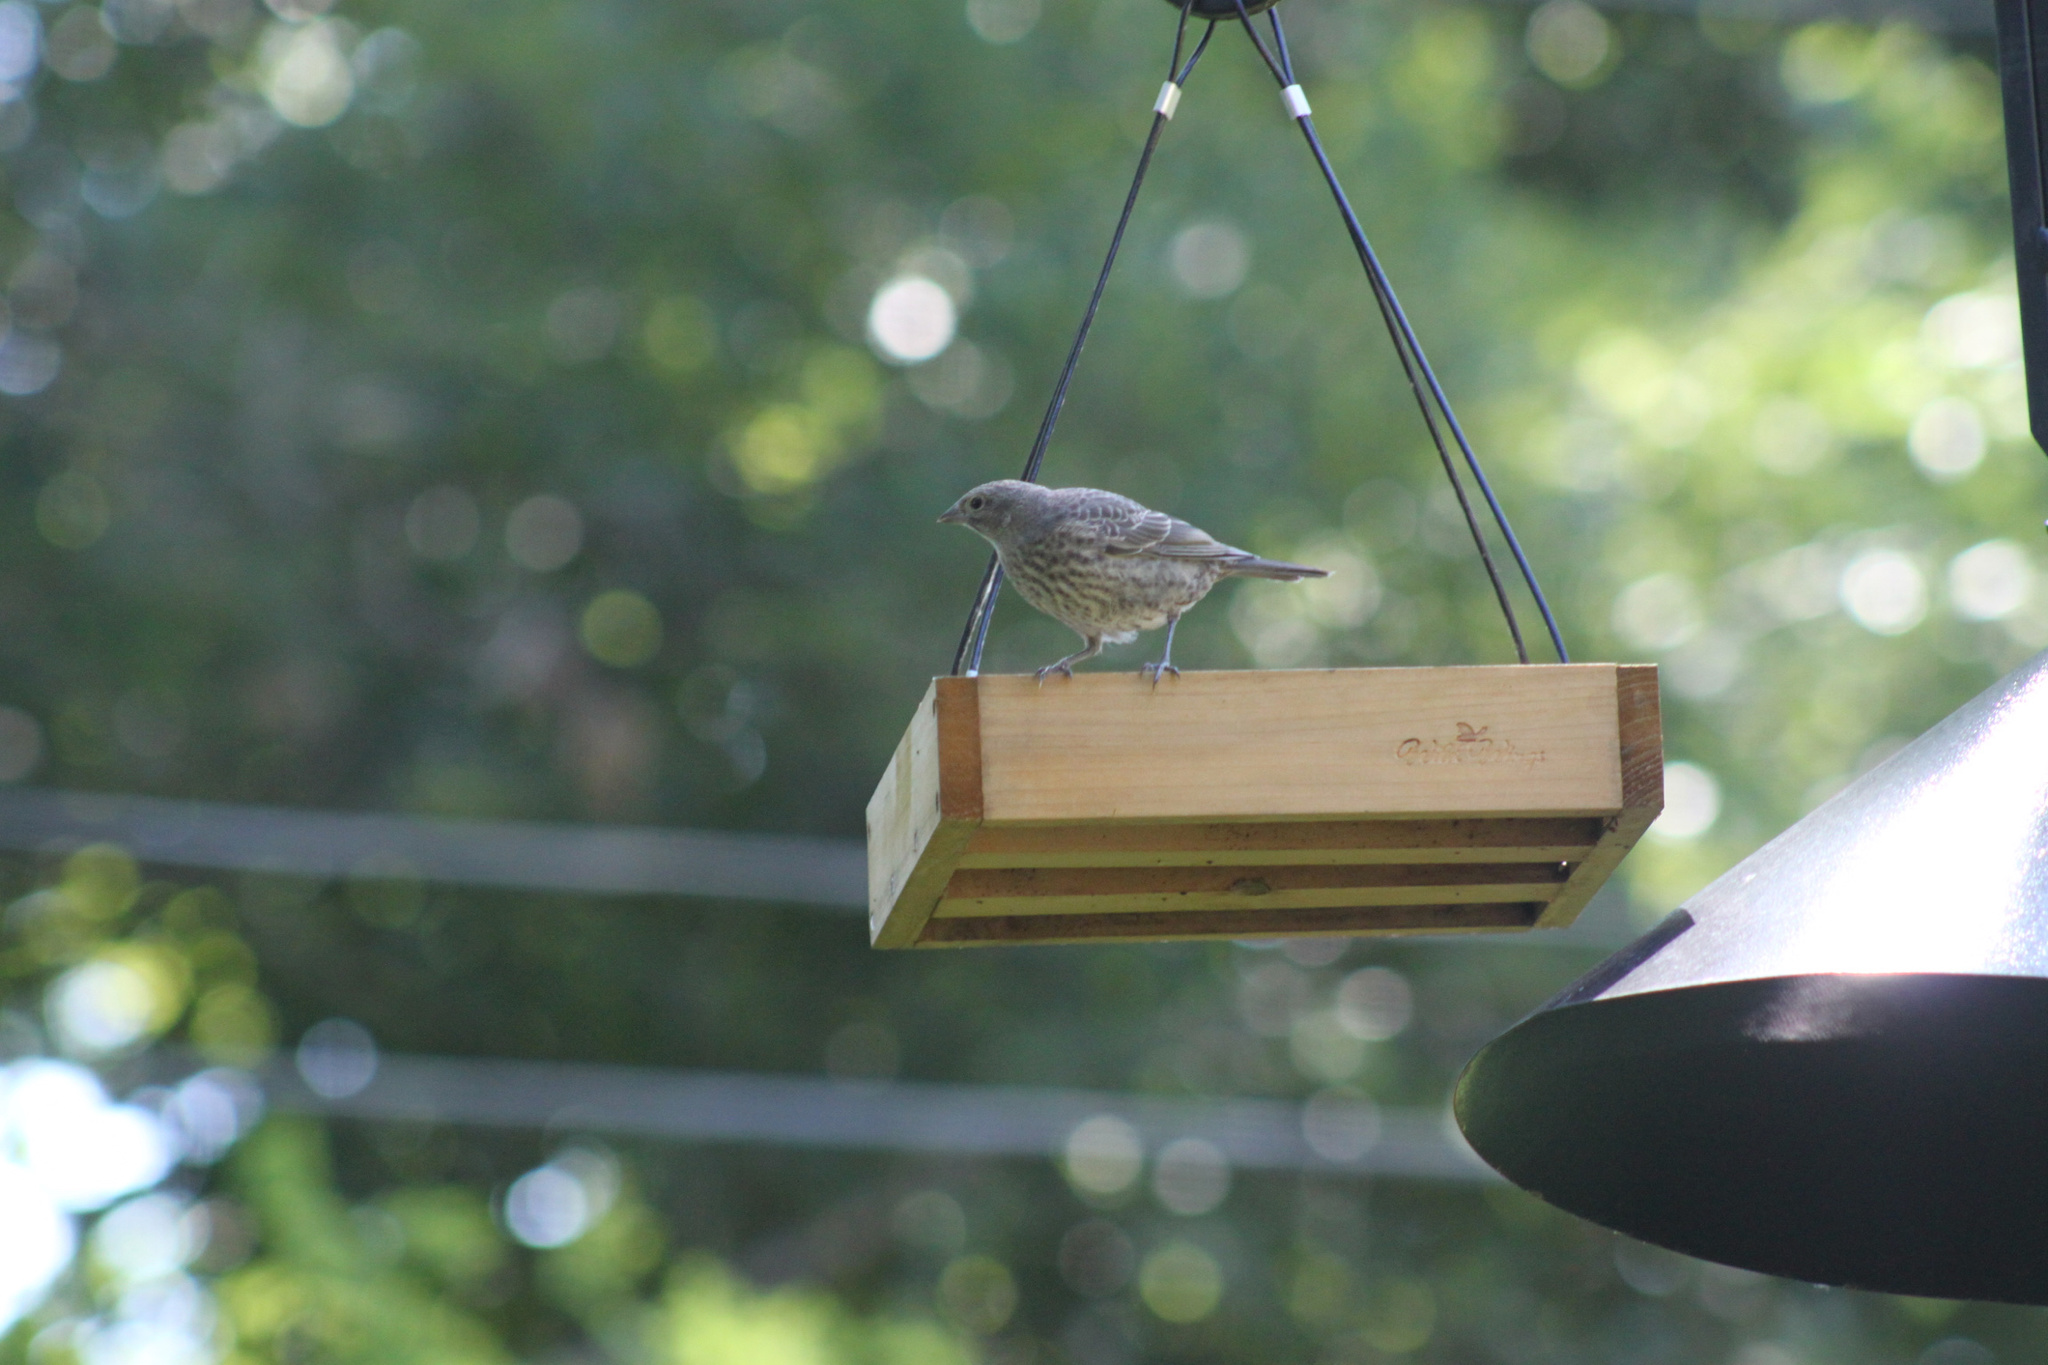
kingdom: Animalia
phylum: Chordata
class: Aves
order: Passeriformes
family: Icteridae
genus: Molothrus
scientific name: Molothrus ater
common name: Brown-headed cowbird
